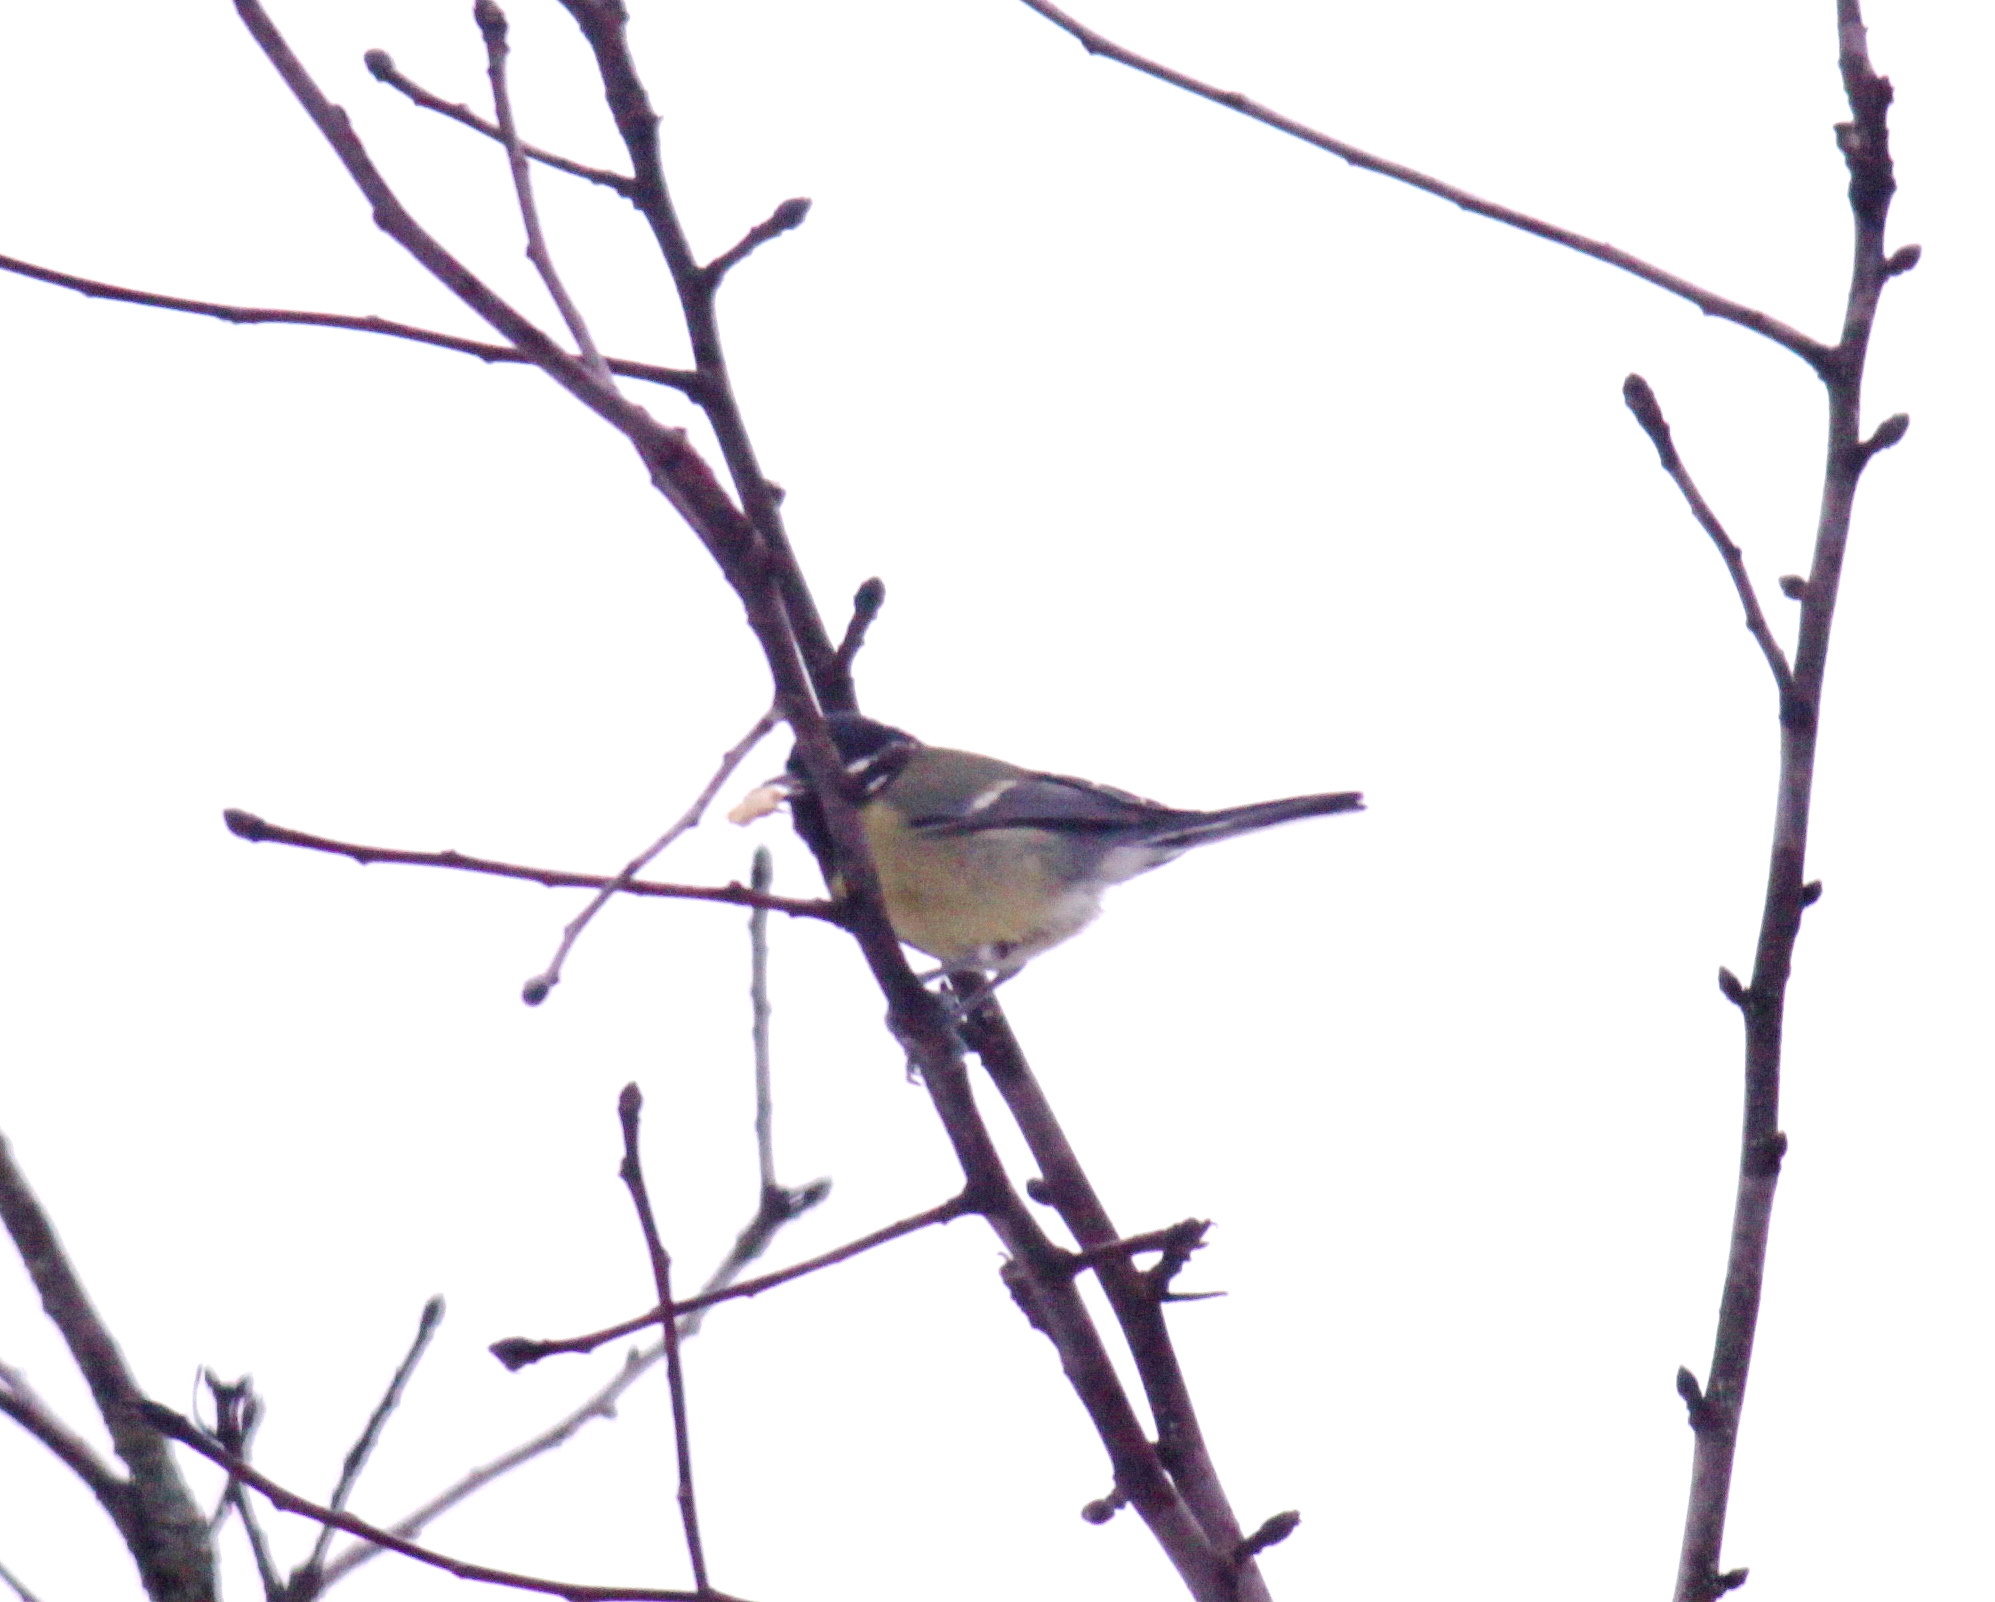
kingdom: Animalia
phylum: Chordata
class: Aves
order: Passeriformes
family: Paridae
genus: Parus
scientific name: Parus major
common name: Great tit
